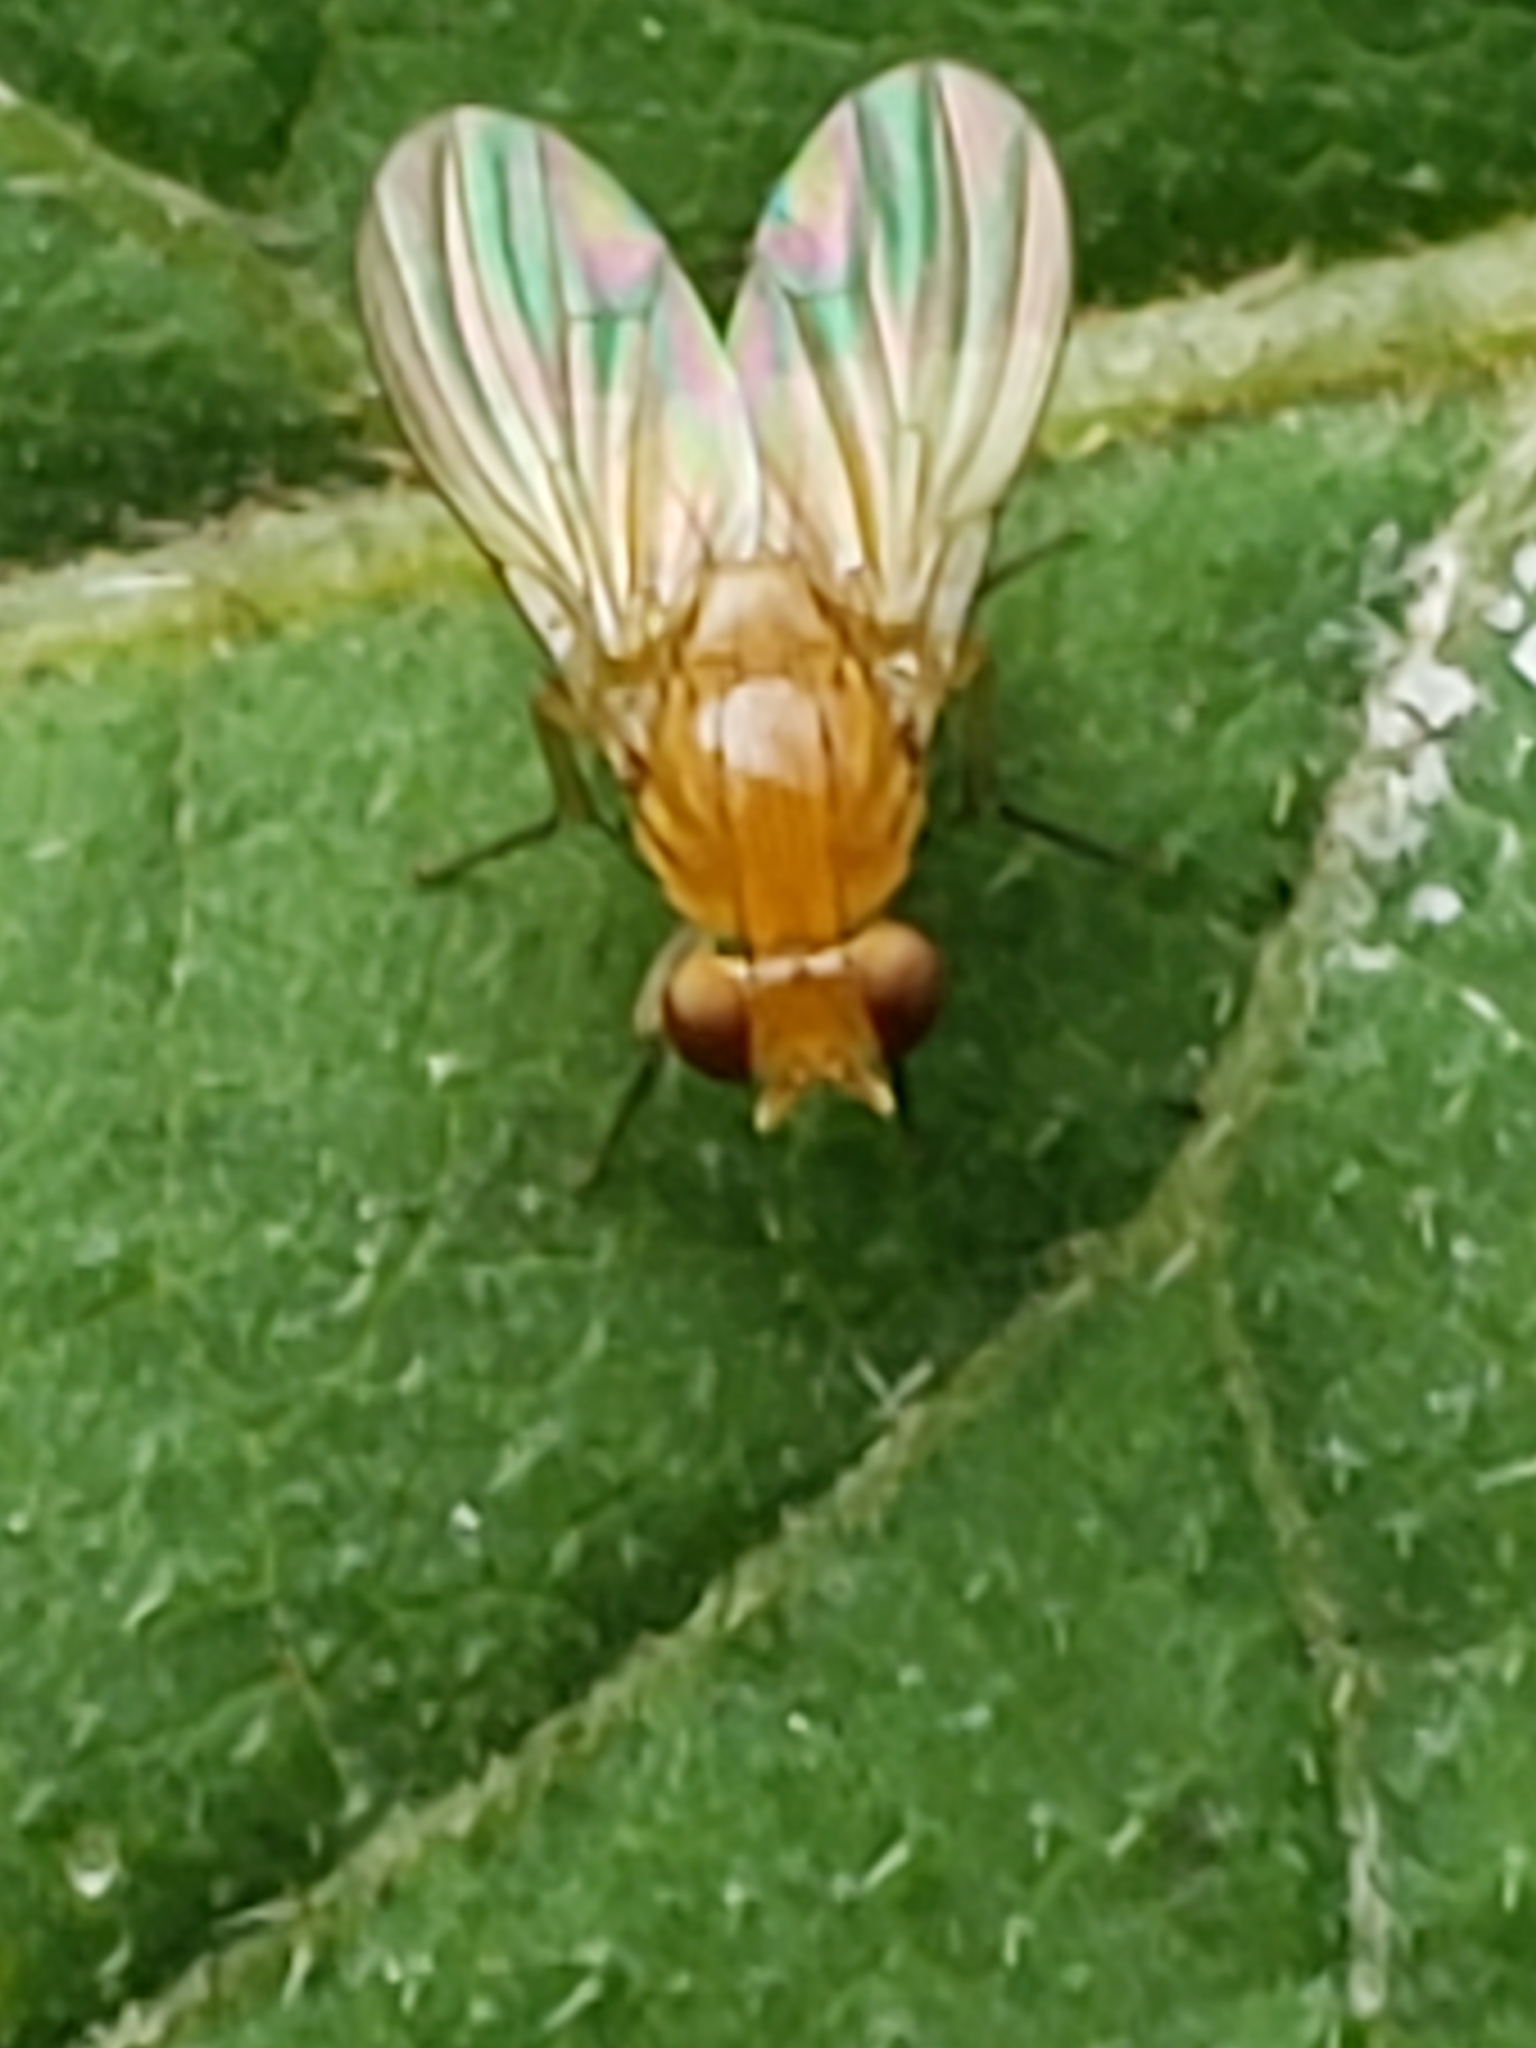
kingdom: Animalia
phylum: Arthropoda
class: Insecta
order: Diptera
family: Lauxaniidae
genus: Neogriphoneura
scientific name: Neogriphoneura sordida
